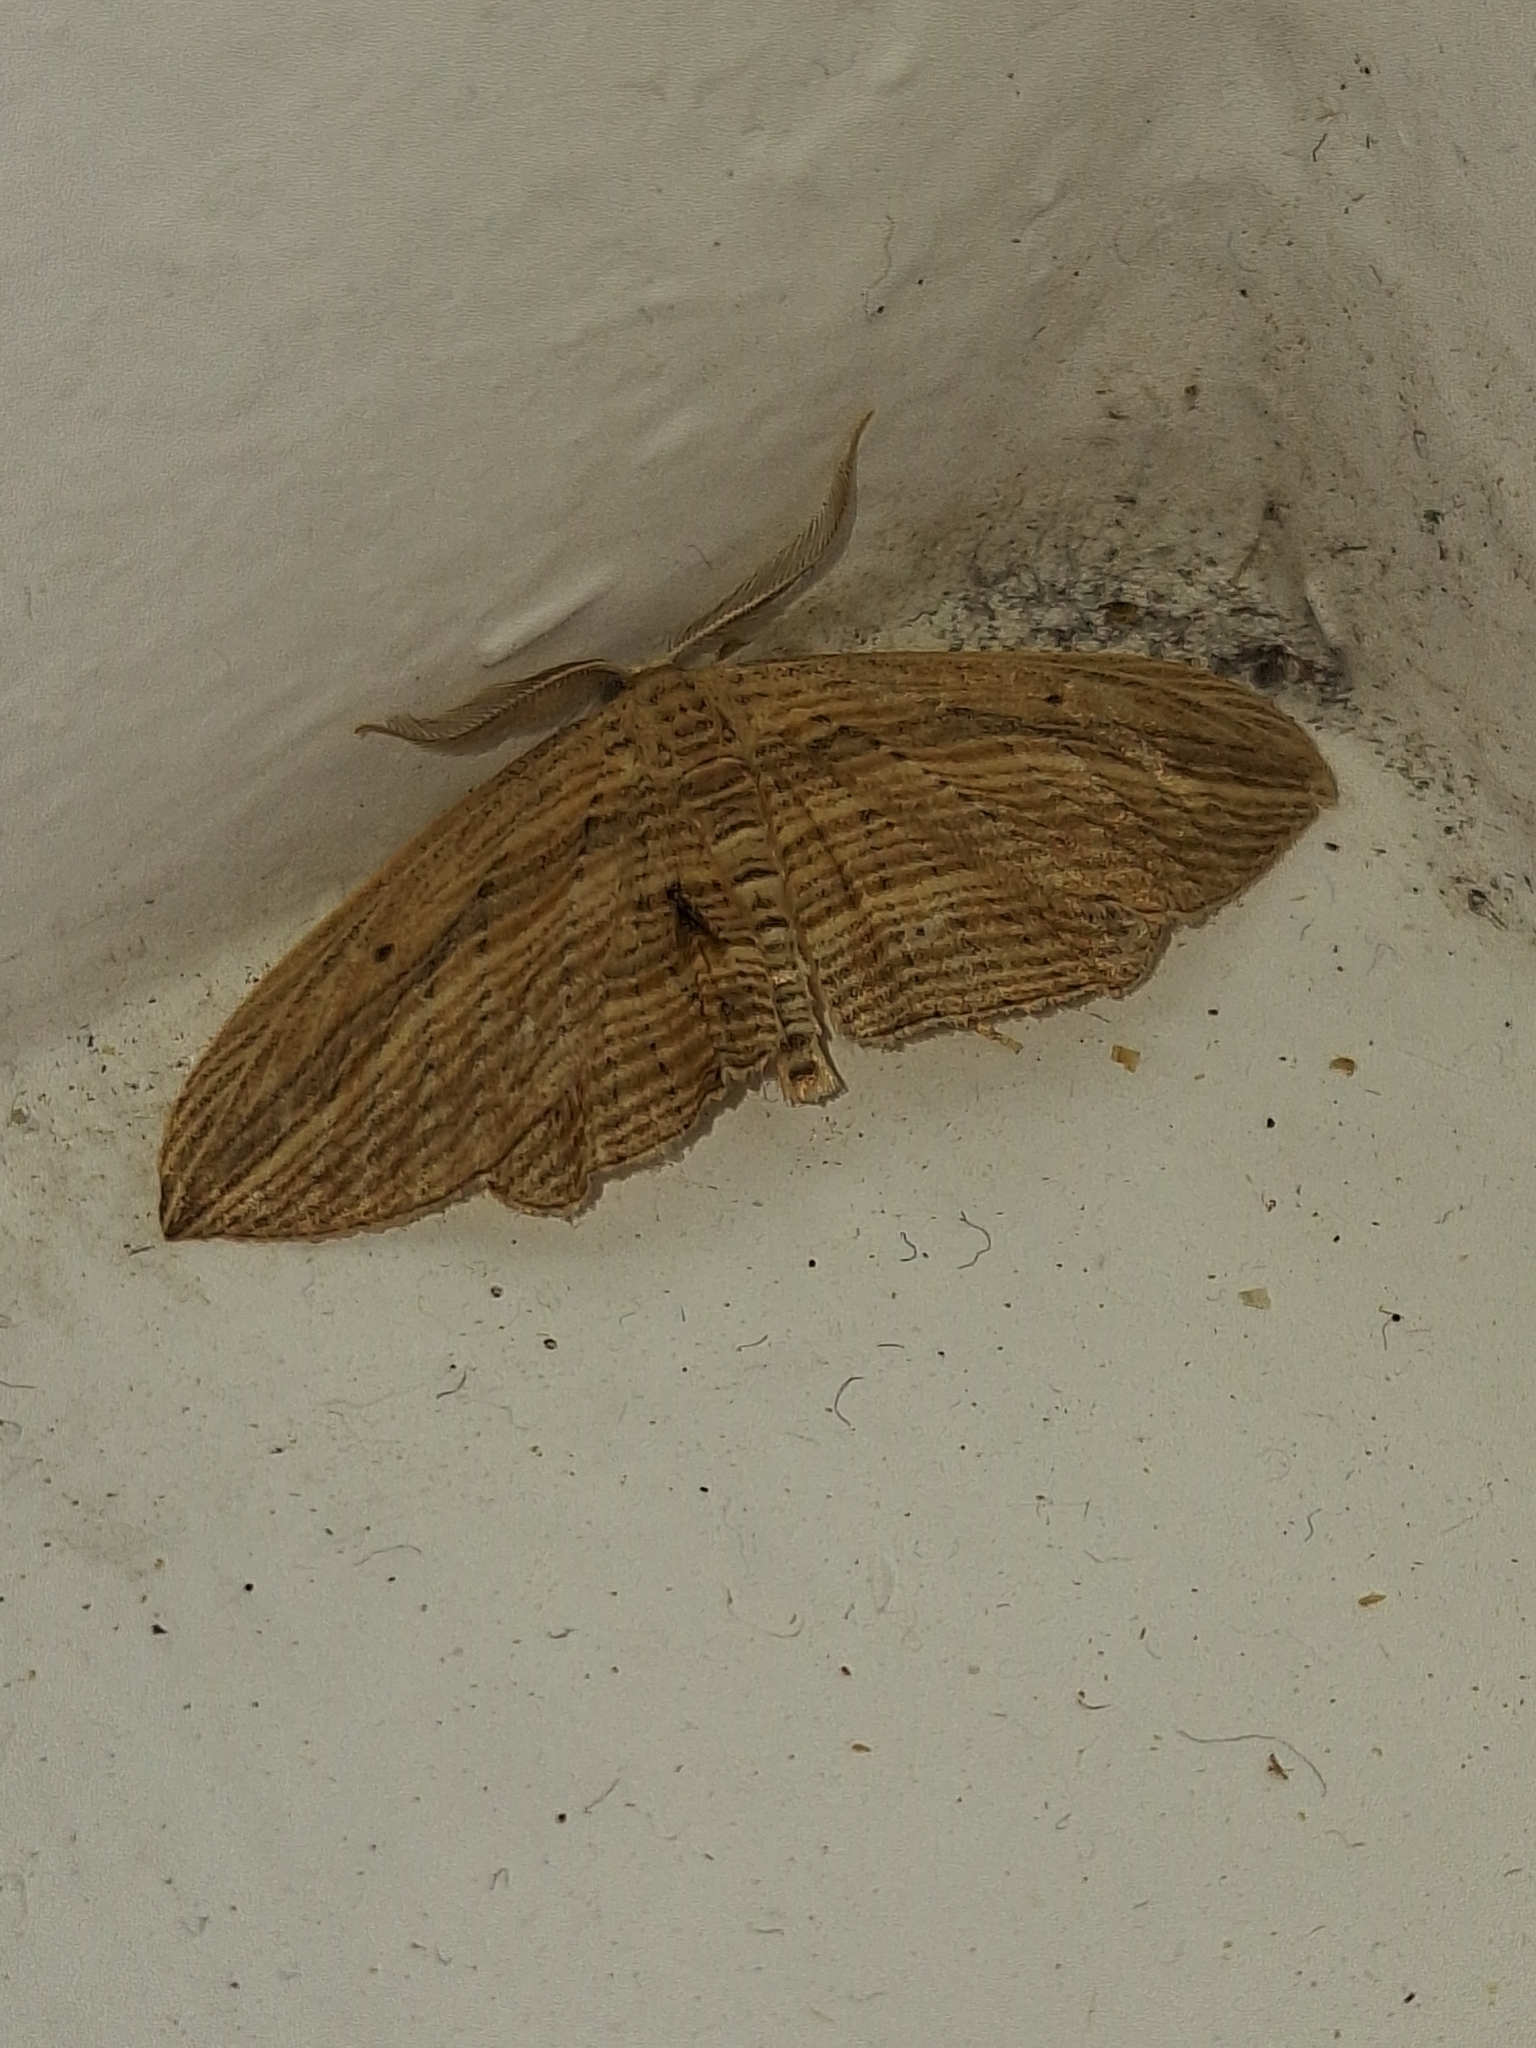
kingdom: Animalia
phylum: Arthropoda
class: Insecta
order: Lepidoptera
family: Geometridae
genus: Epiphryne
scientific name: Epiphryne verriculata
